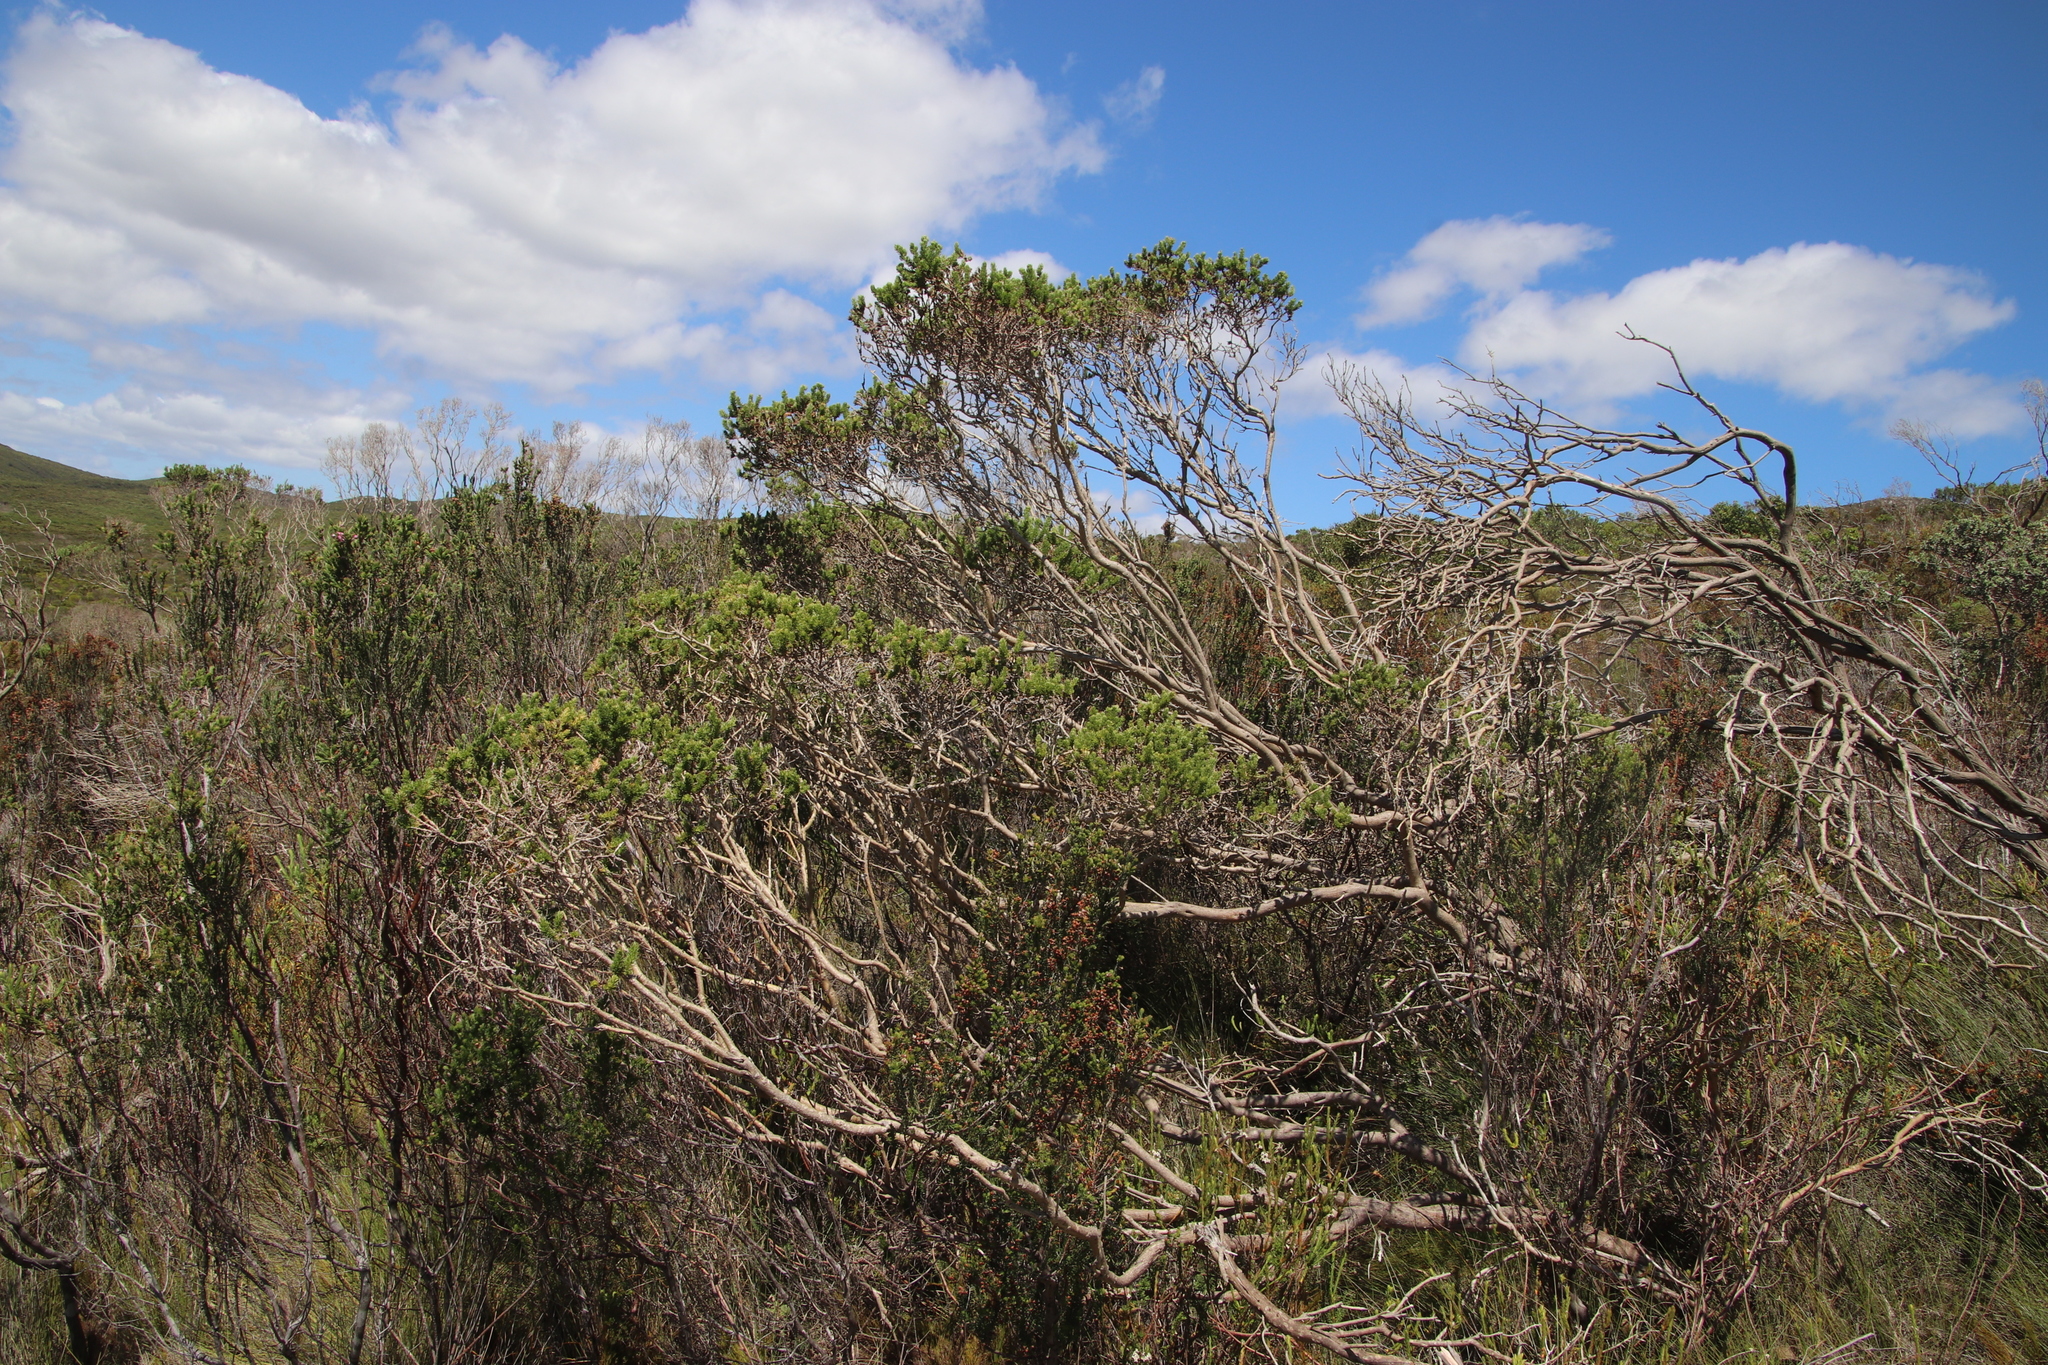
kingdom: Plantae
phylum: Tracheophyta
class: Magnoliopsida
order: Asterales
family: Asteraceae
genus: Metalasia
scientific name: Metalasia muricata
